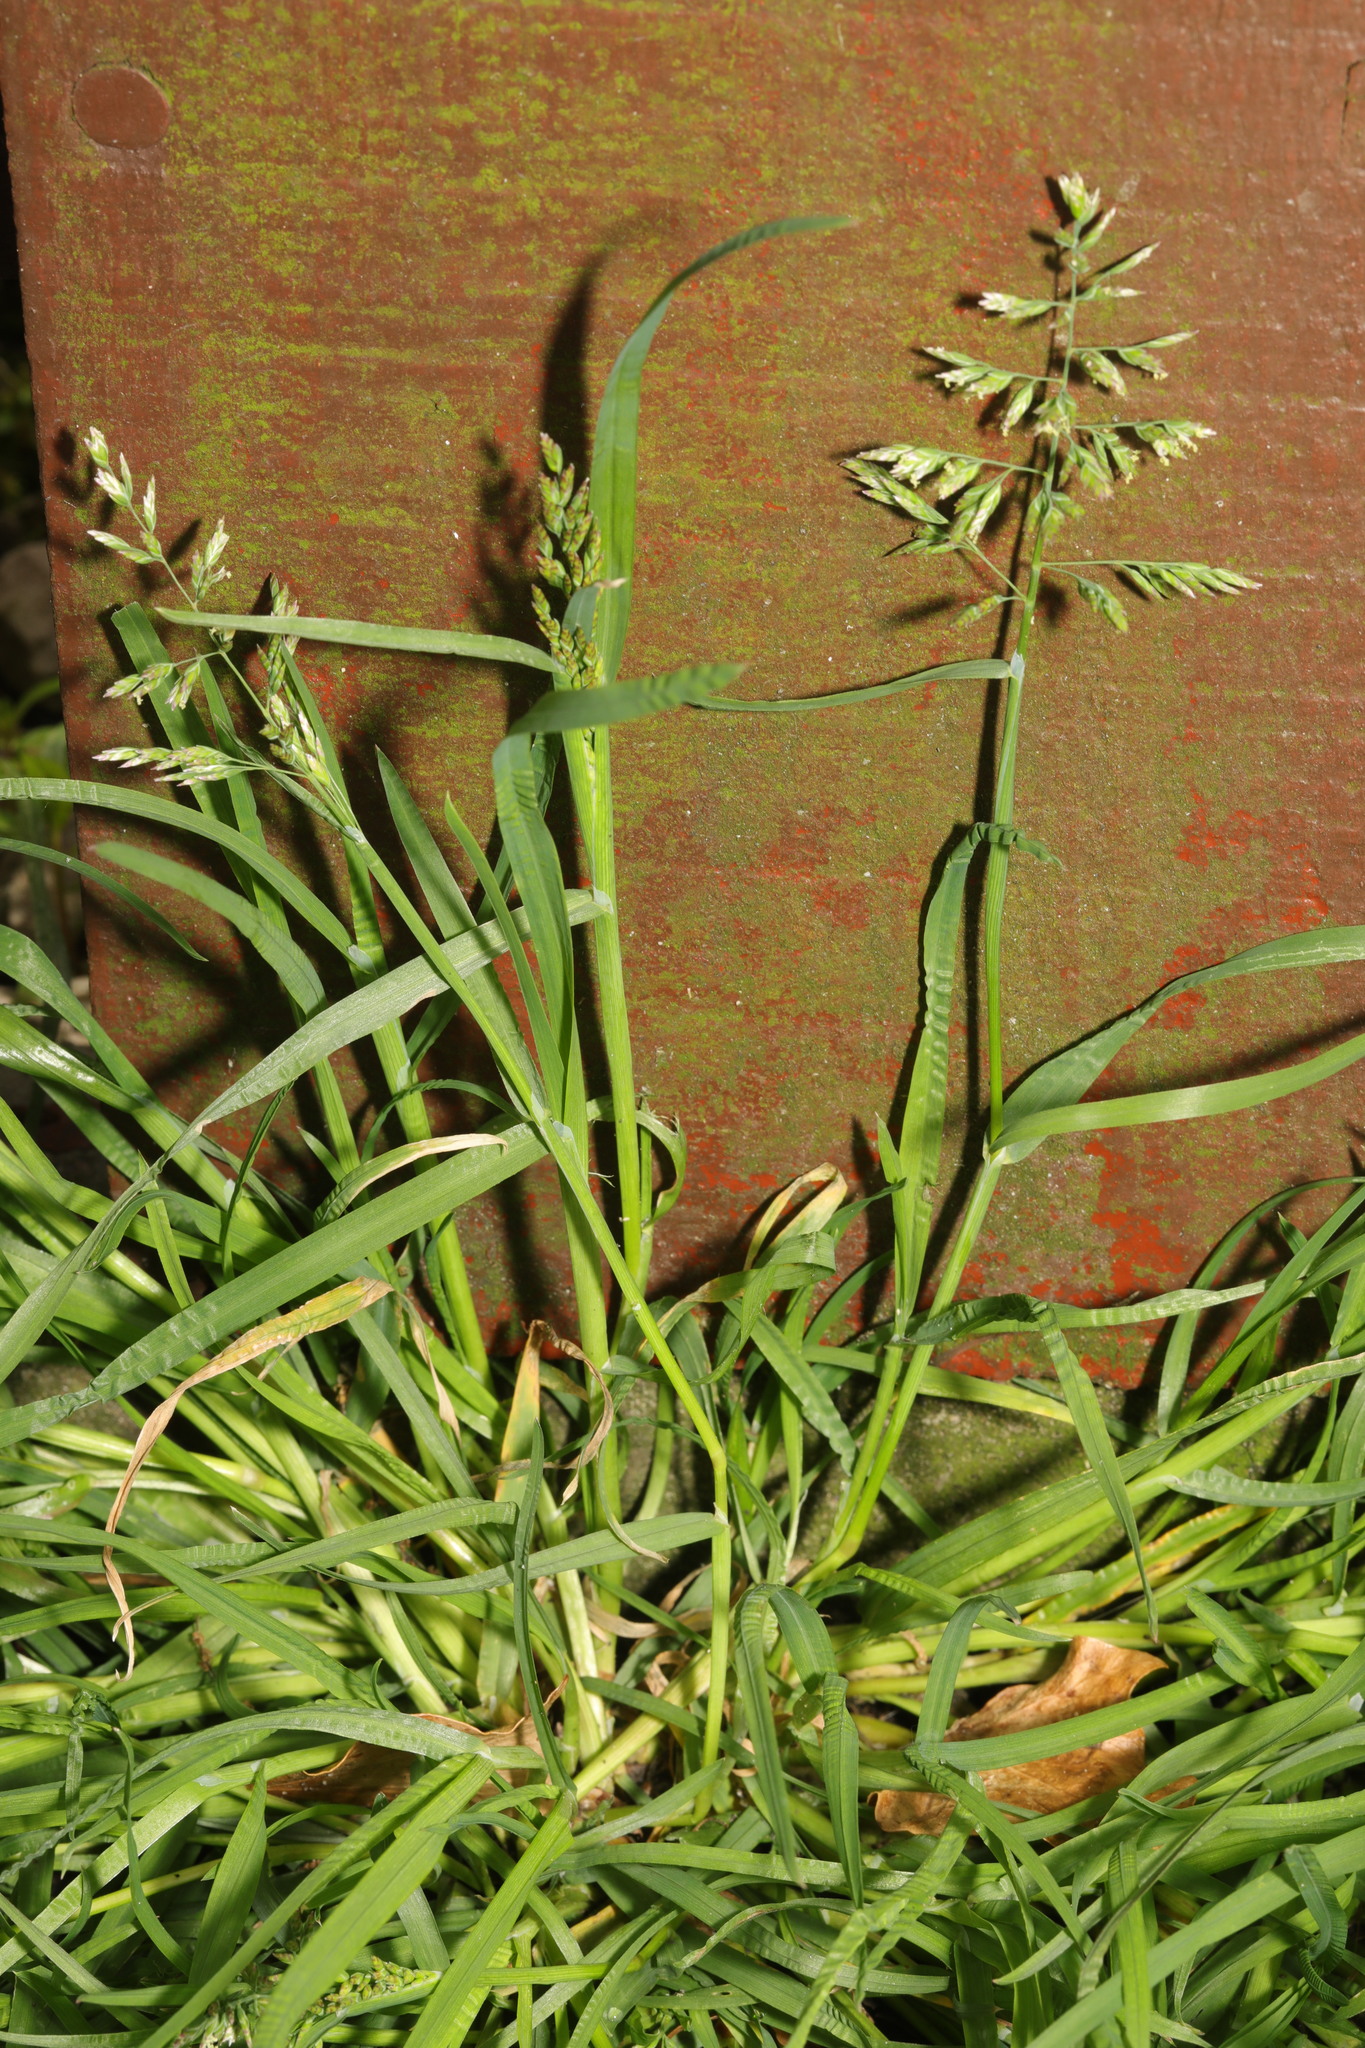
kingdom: Plantae
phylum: Tracheophyta
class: Liliopsida
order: Poales
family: Poaceae
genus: Poa
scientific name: Poa annua
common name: Annual bluegrass
